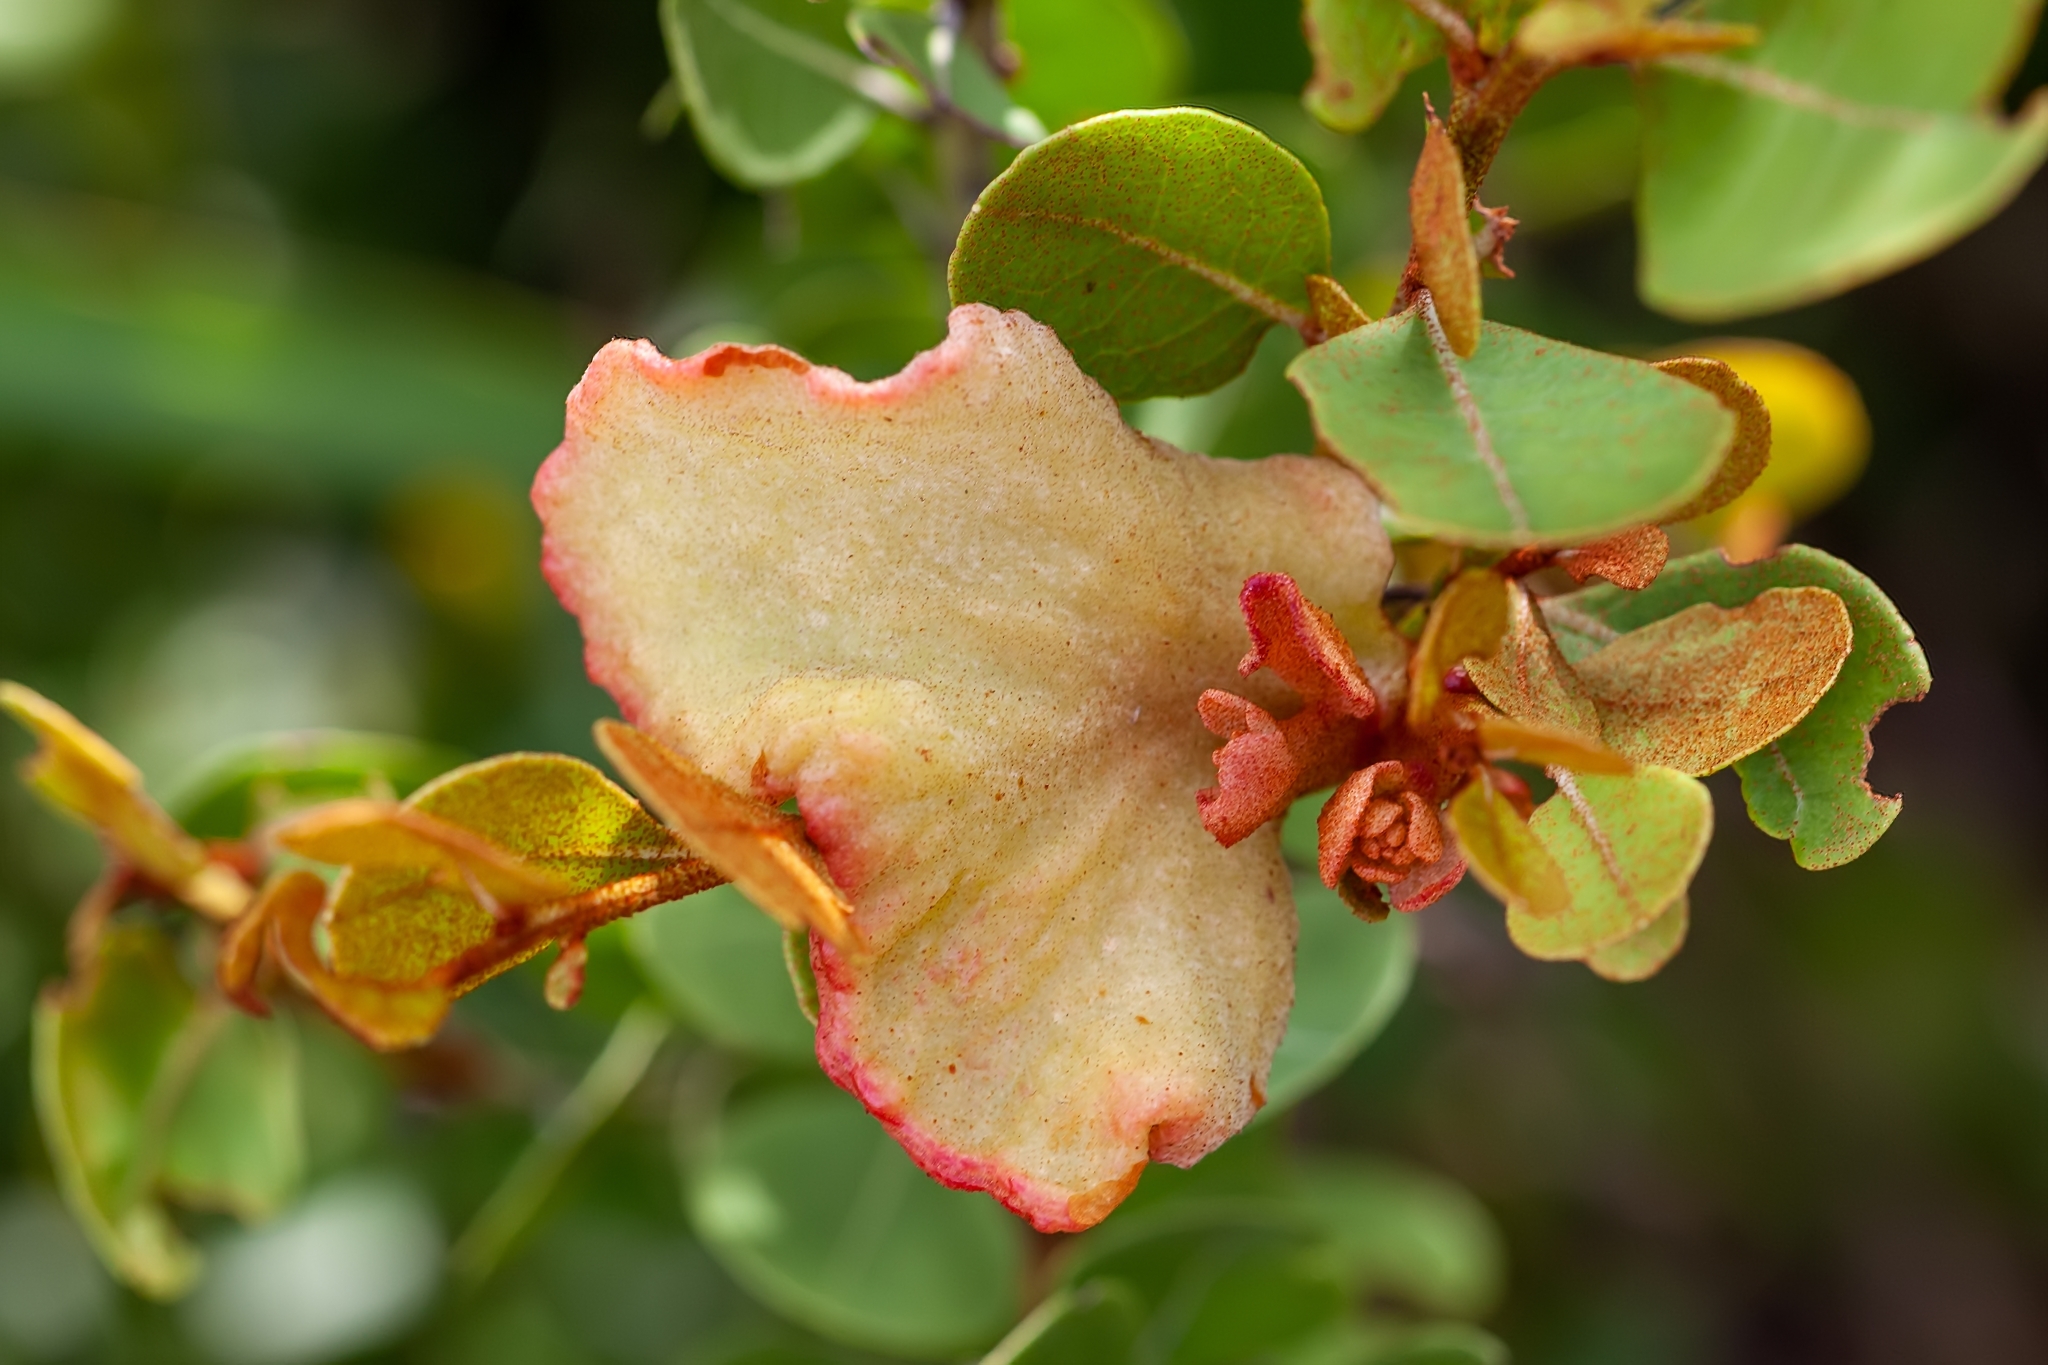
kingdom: Plantae
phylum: Tracheophyta
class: Magnoliopsida
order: Ericales
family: Ericaceae
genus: Lyonia
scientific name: Lyonia fruticosa
